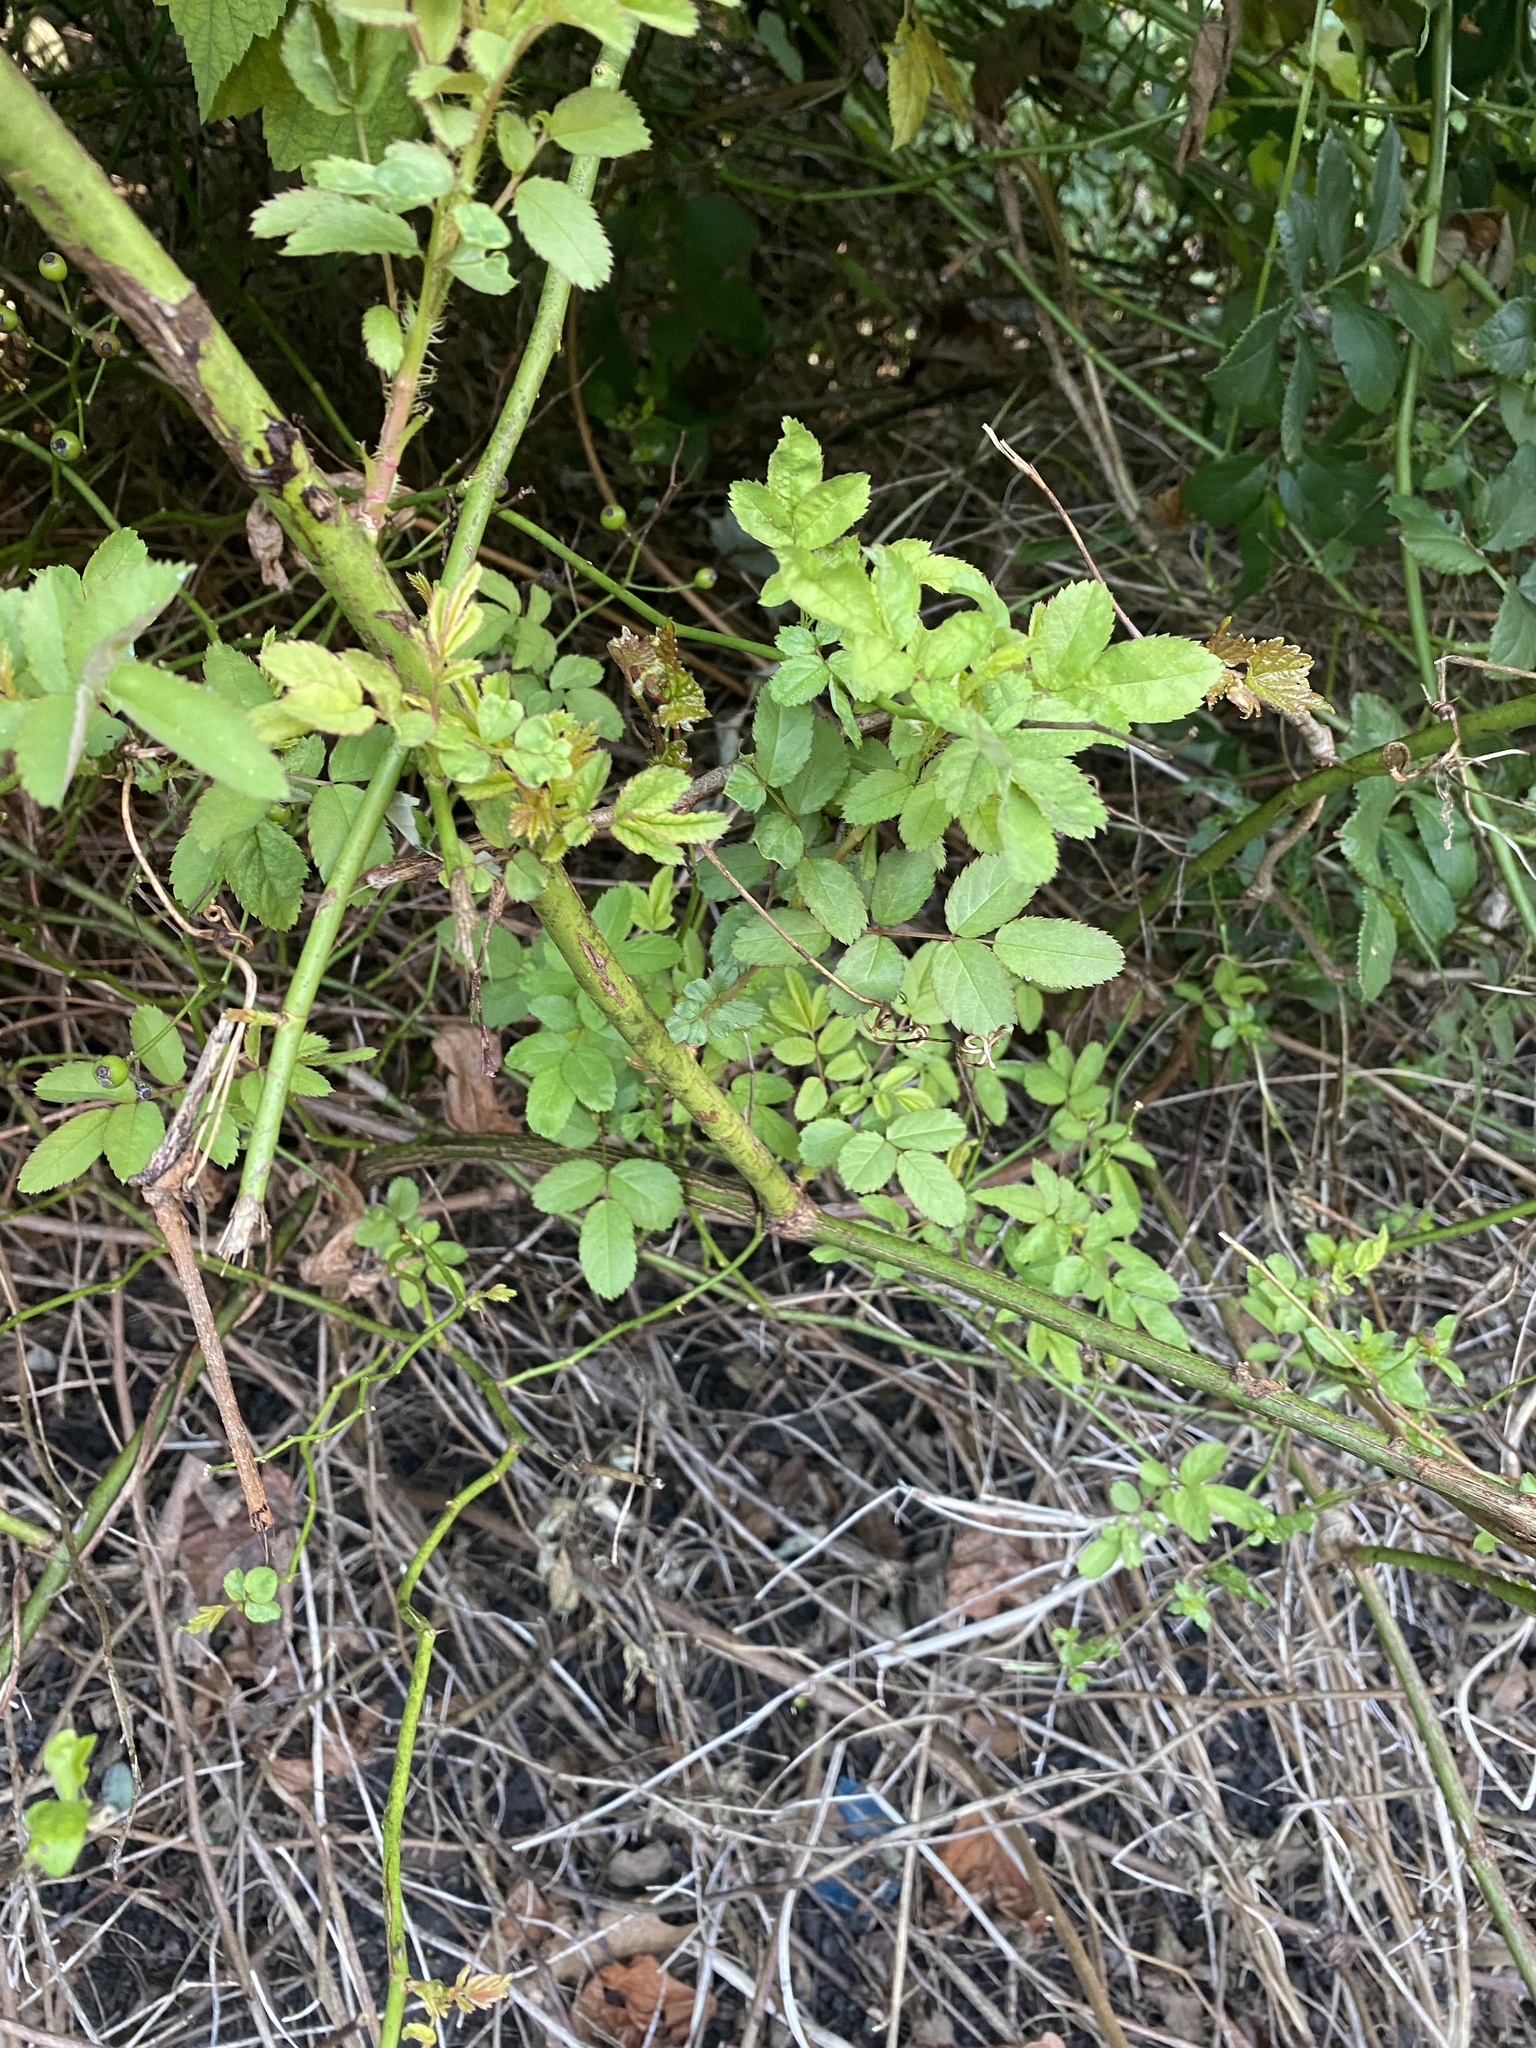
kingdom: Plantae
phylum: Tracheophyta
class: Magnoliopsida
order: Rosales
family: Rosaceae
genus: Rosa
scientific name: Rosa multiflora
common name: Multiflora rose
